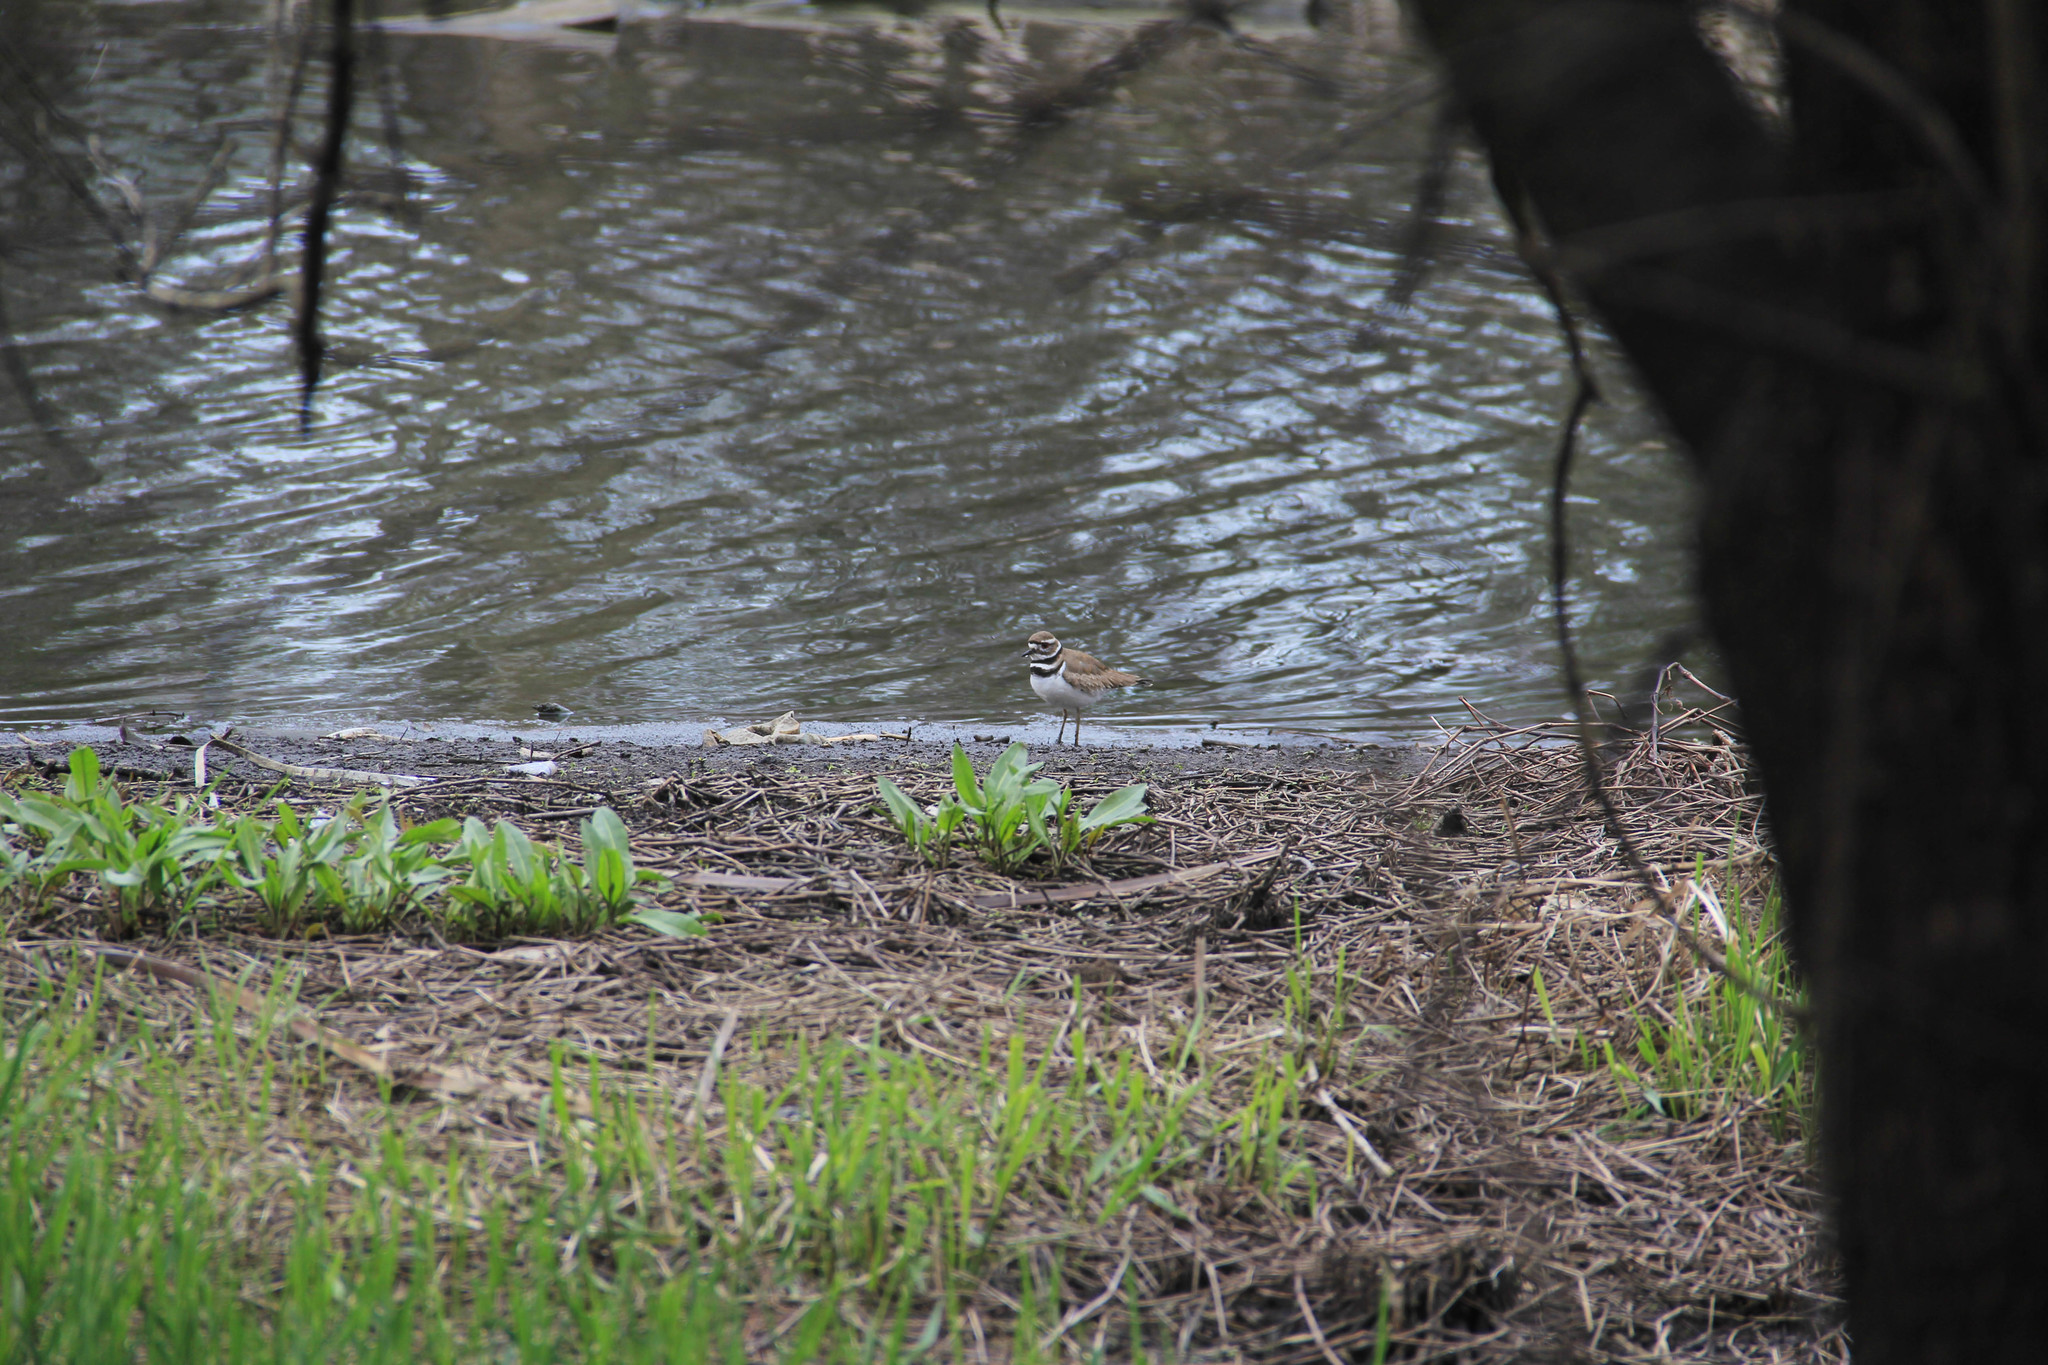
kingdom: Animalia
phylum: Chordata
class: Aves
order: Charadriiformes
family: Charadriidae
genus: Charadrius
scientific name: Charadrius vociferus
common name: Killdeer
